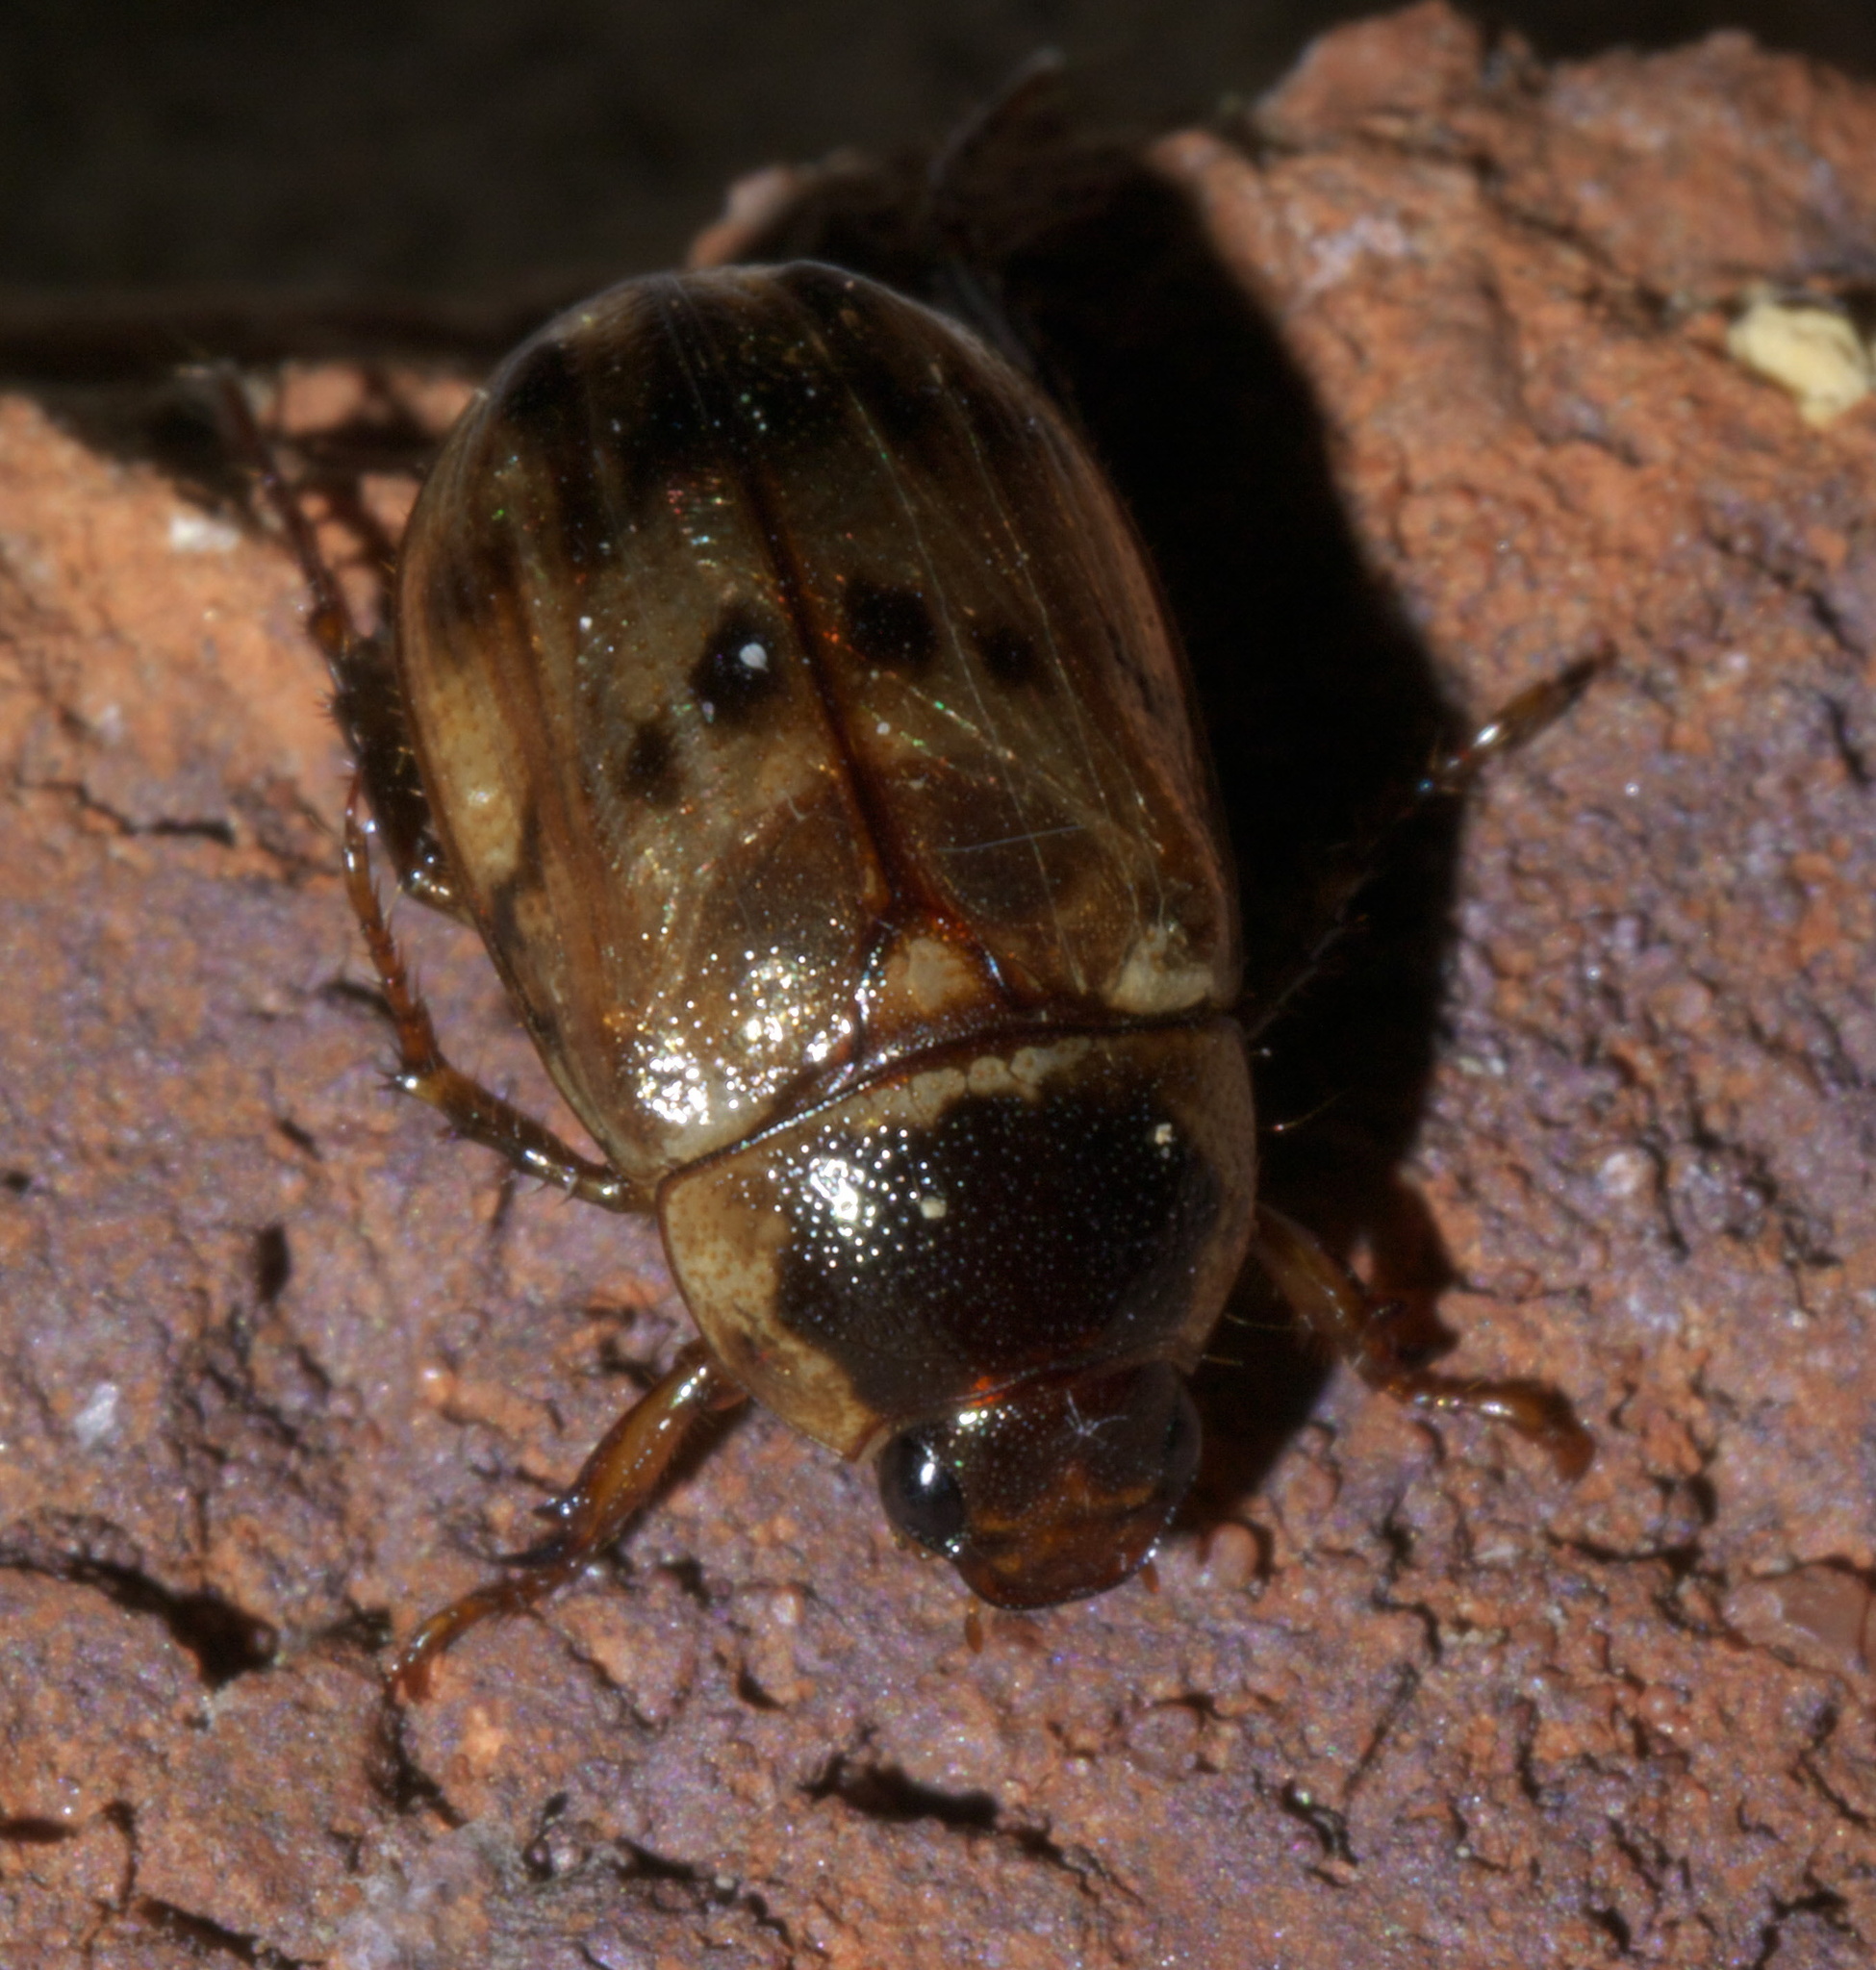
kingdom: Animalia
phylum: Arthropoda
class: Insecta
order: Coleoptera
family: Scarabaeidae
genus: Anomala
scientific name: Anomala innuba
